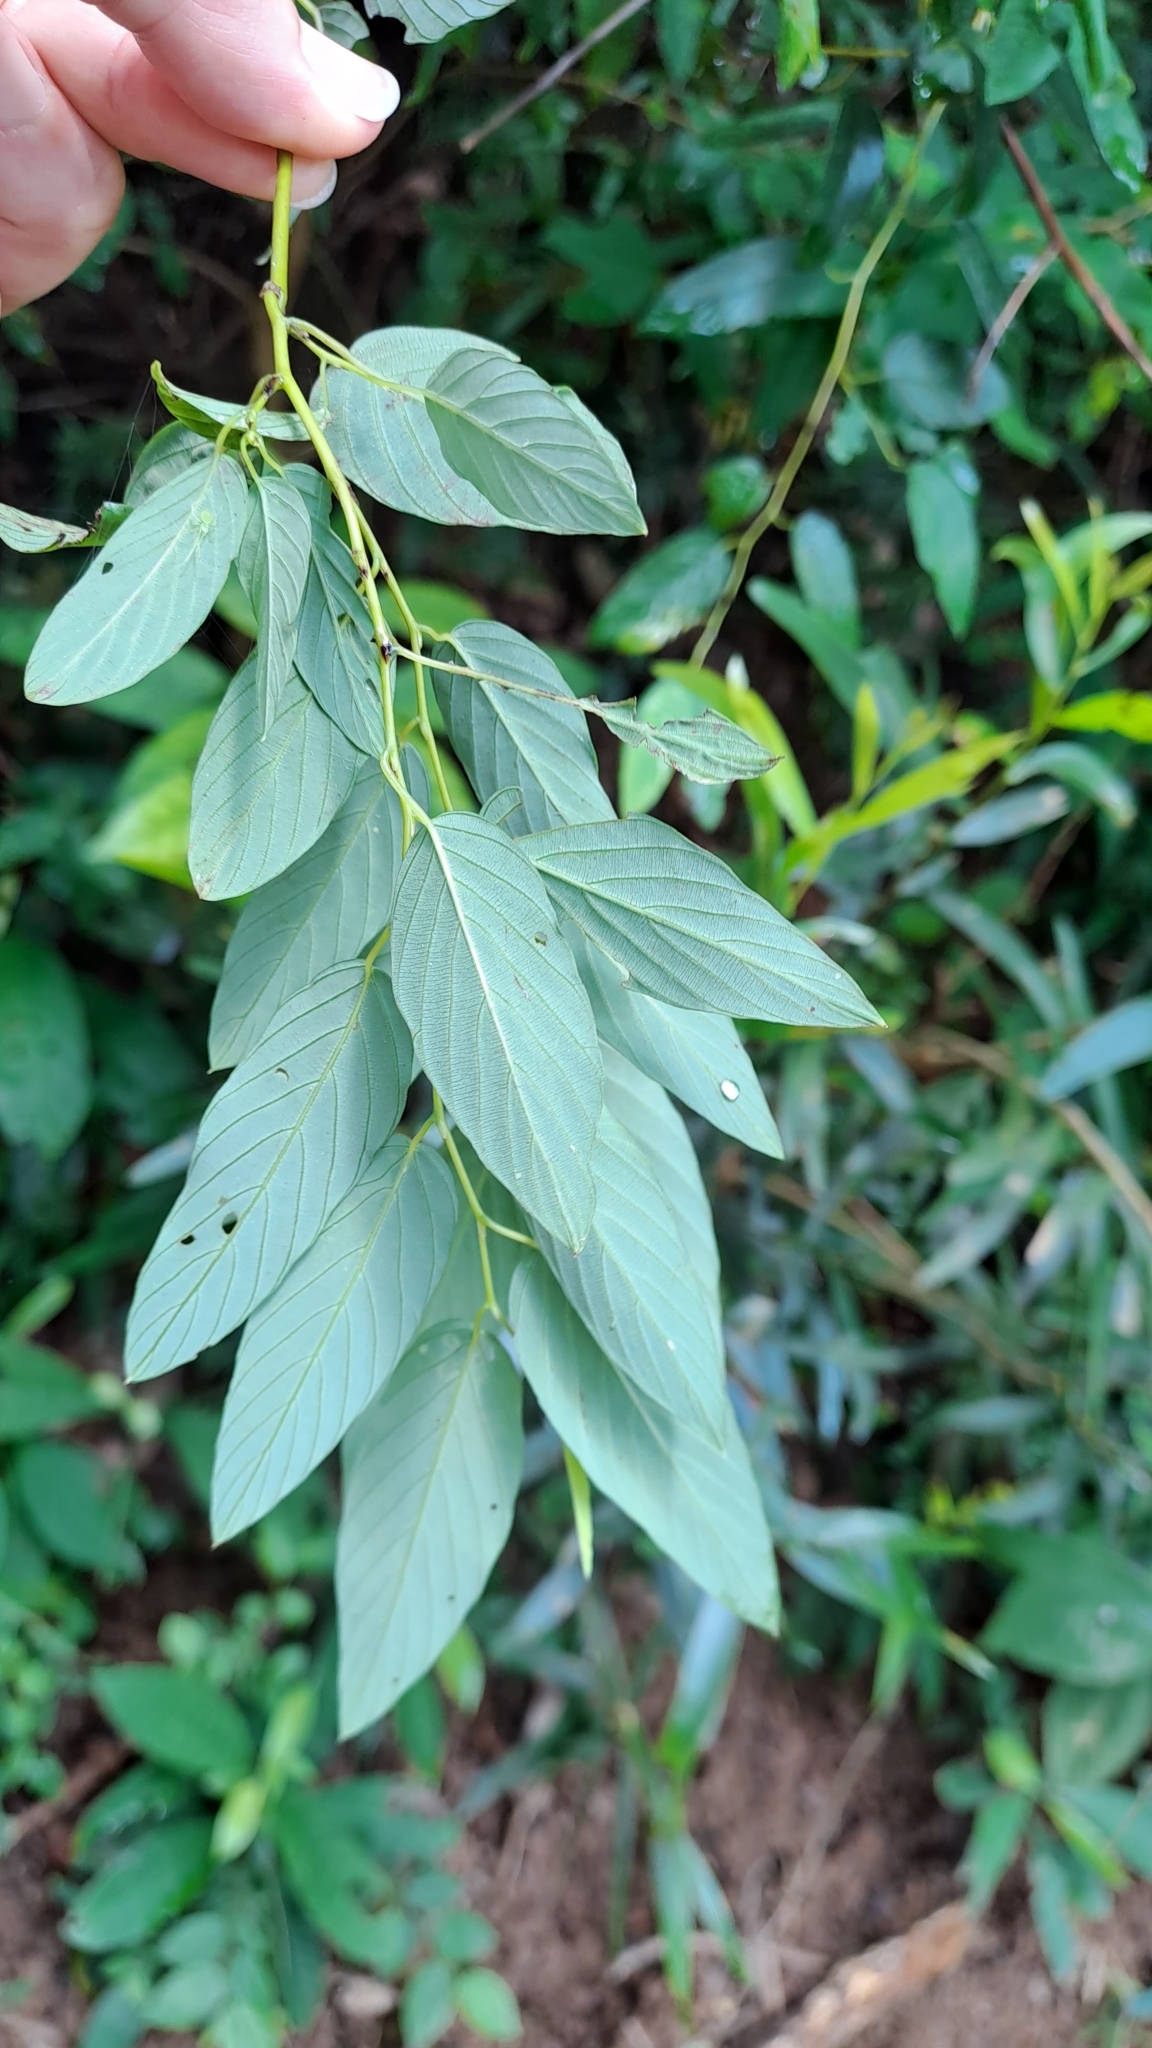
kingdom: Plantae
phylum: Tracheophyta
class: Magnoliopsida
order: Rosales
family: Rhamnaceae
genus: Berchemia
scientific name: Berchemia floribunda
